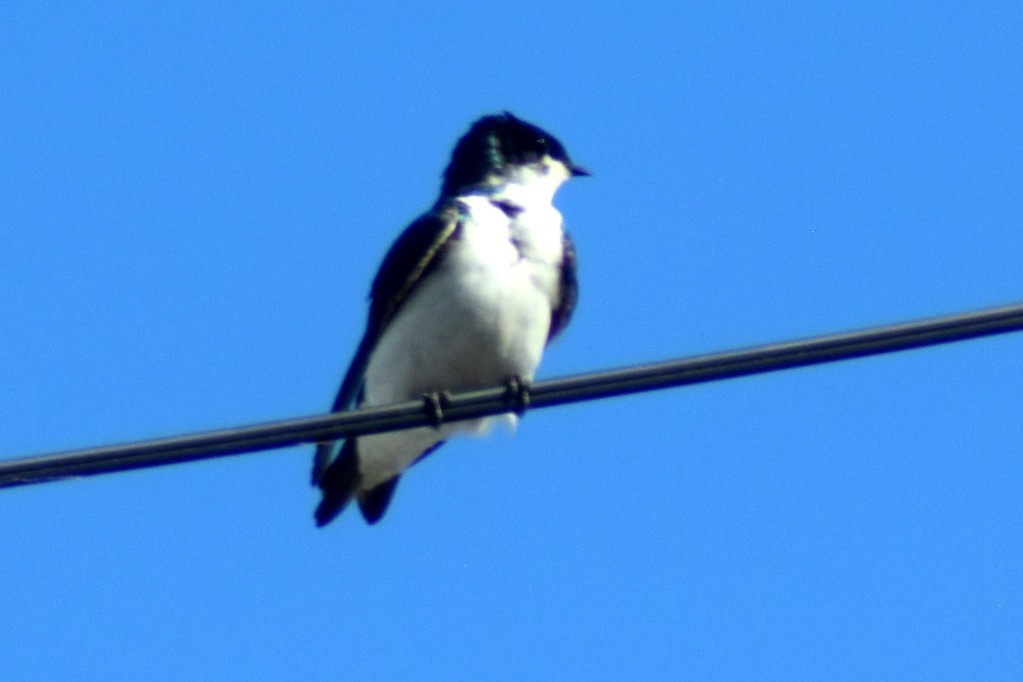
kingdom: Animalia
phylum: Chordata
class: Aves
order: Passeriformes
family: Hirundinidae
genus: Tachycineta
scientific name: Tachycineta bicolor
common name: Tree swallow
